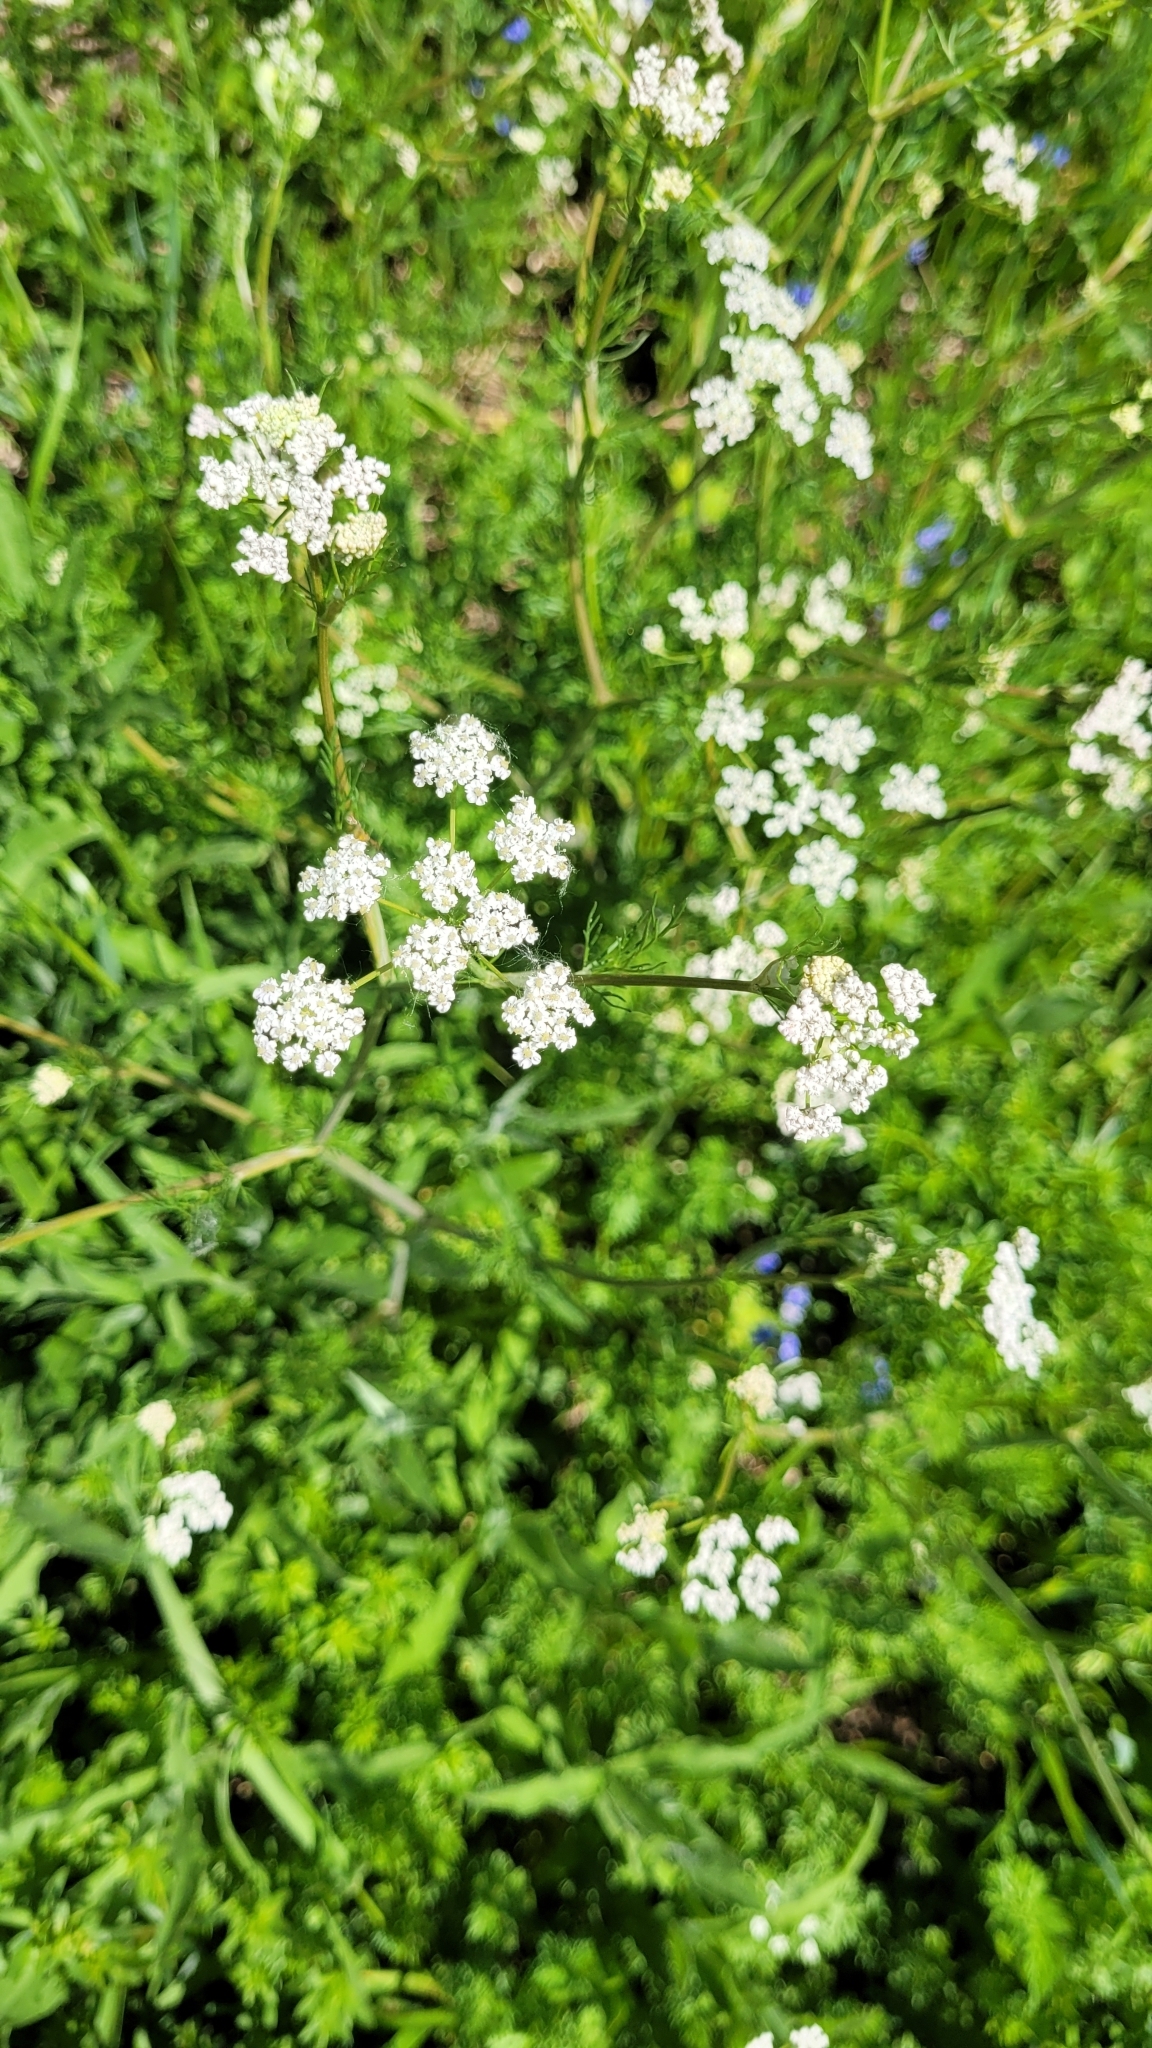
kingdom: Plantae
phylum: Tracheophyta
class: Magnoliopsida
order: Apiales
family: Apiaceae
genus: Carum
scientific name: Carum carvi
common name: Caraway
